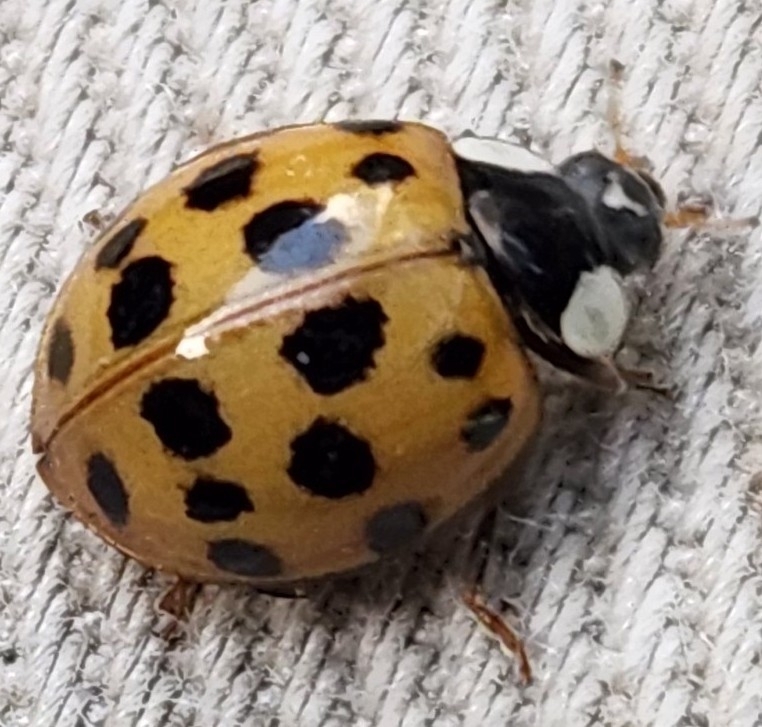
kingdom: Animalia
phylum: Arthropoda
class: Insecta
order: Coleoptera
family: Coccinellidae
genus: Harmonia
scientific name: Harmonia axyridis
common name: Harlequin ladybird
